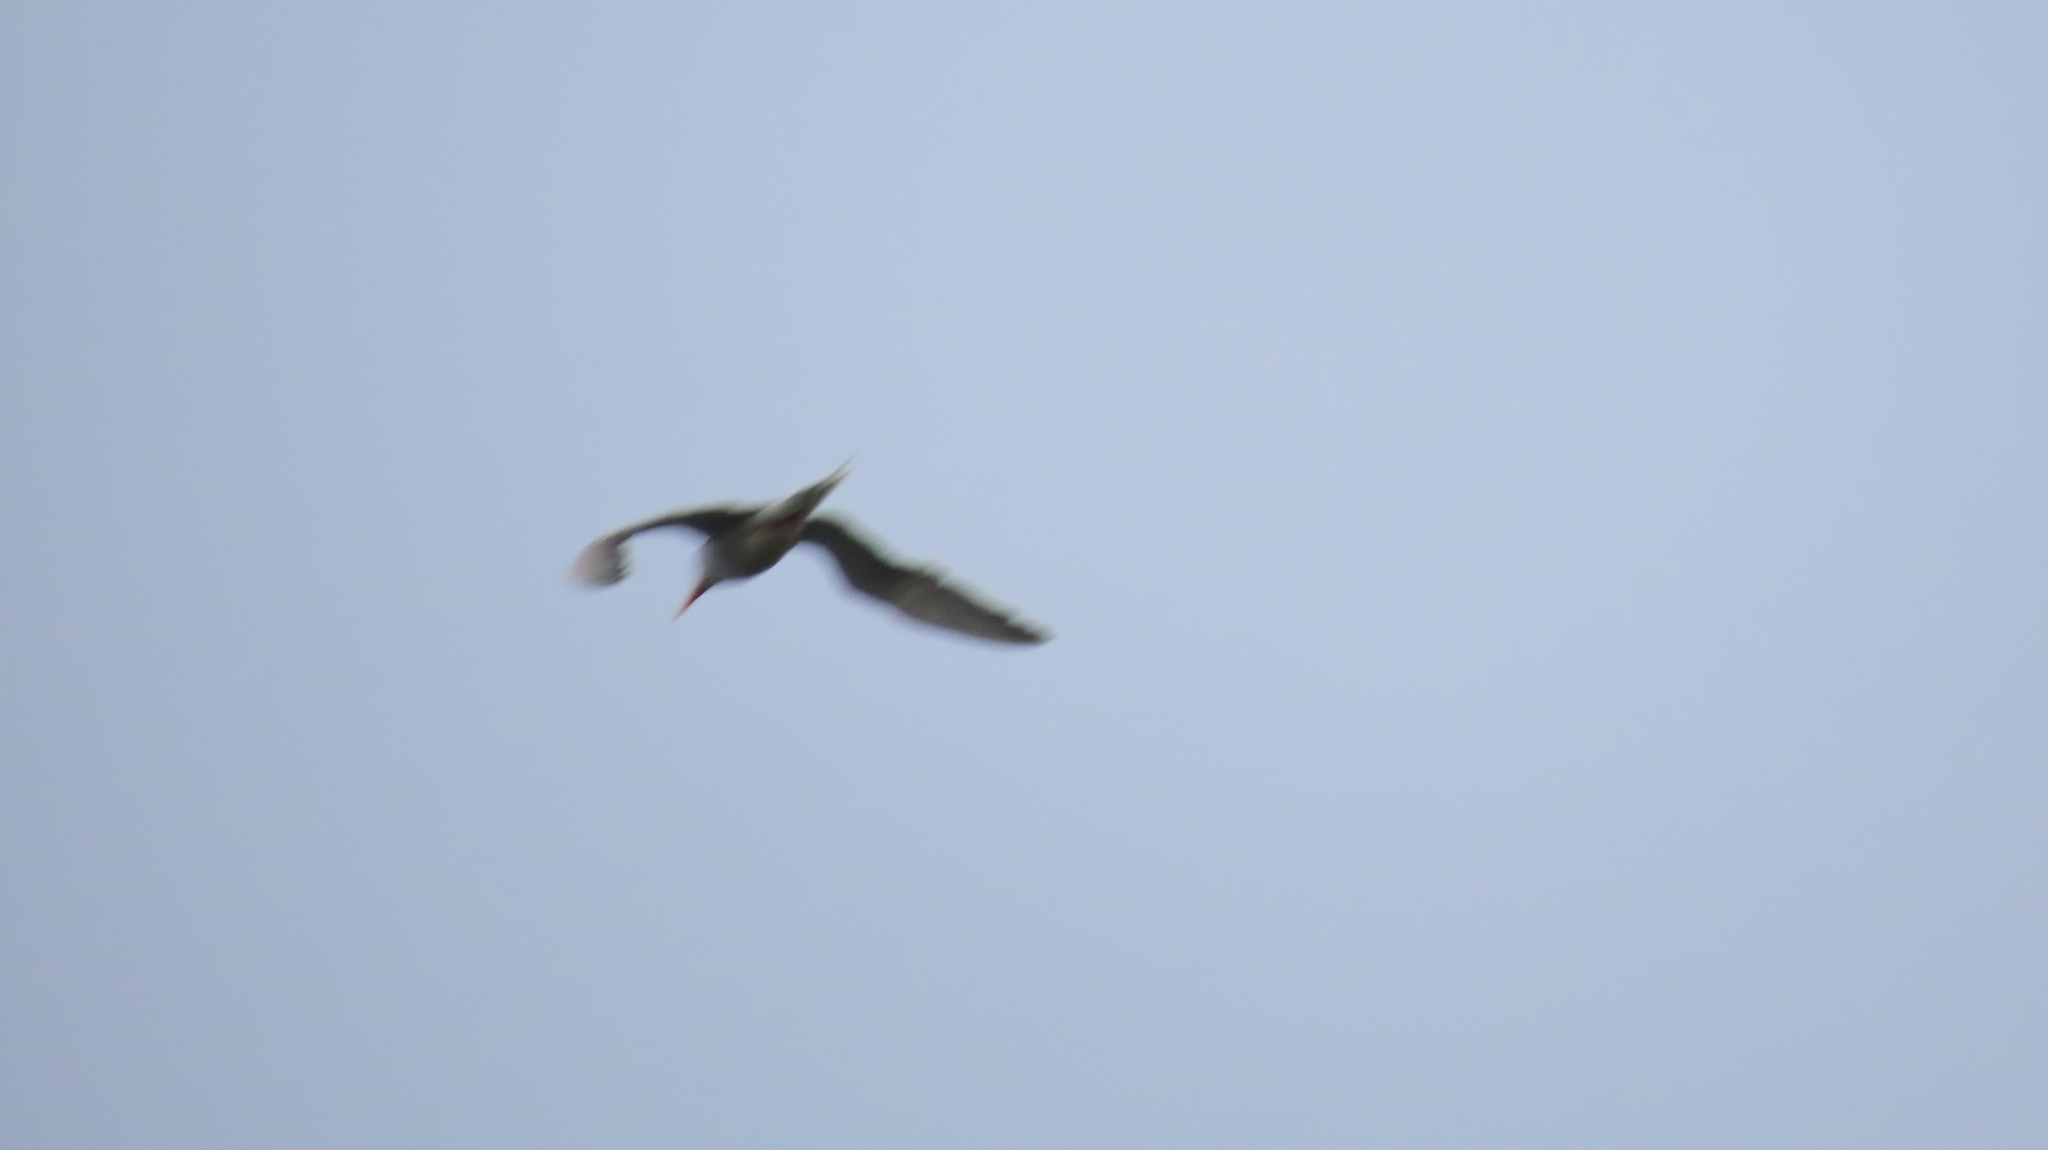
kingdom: Animalia
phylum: Chordata
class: Aves
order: Charadriiformes
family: Laridae
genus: Sterna
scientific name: Sterna aurantia
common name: River tern
